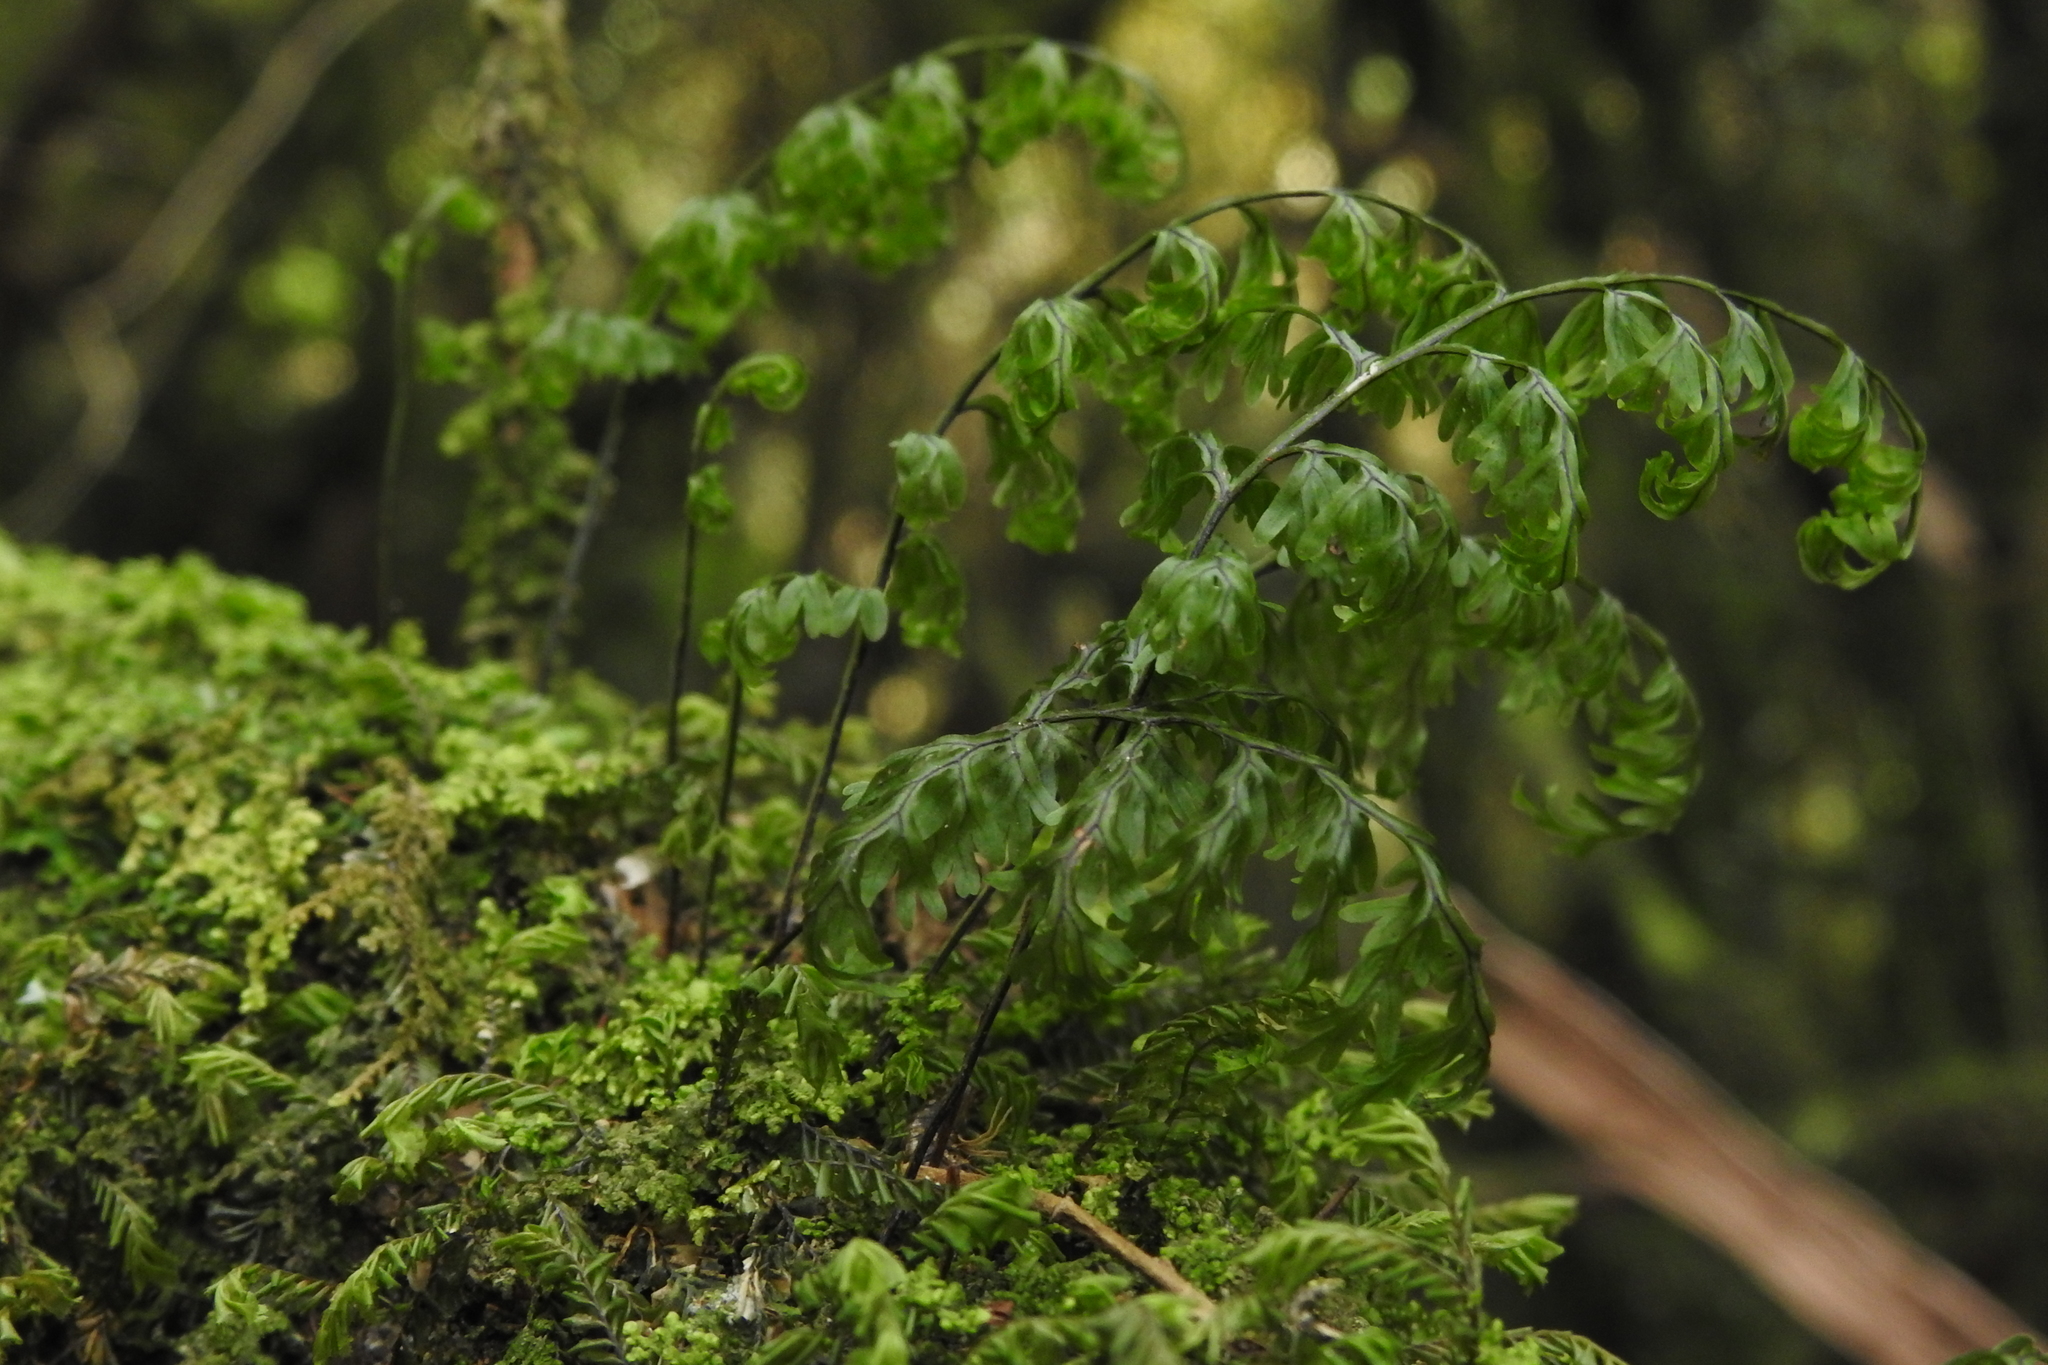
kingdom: Plantae
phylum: Tracheophyta
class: Polypodiopsida
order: Hymenophyllales
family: Hymenophyllaceae
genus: Hymenophyllum
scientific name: Hymenophyllum sanguinolentum
